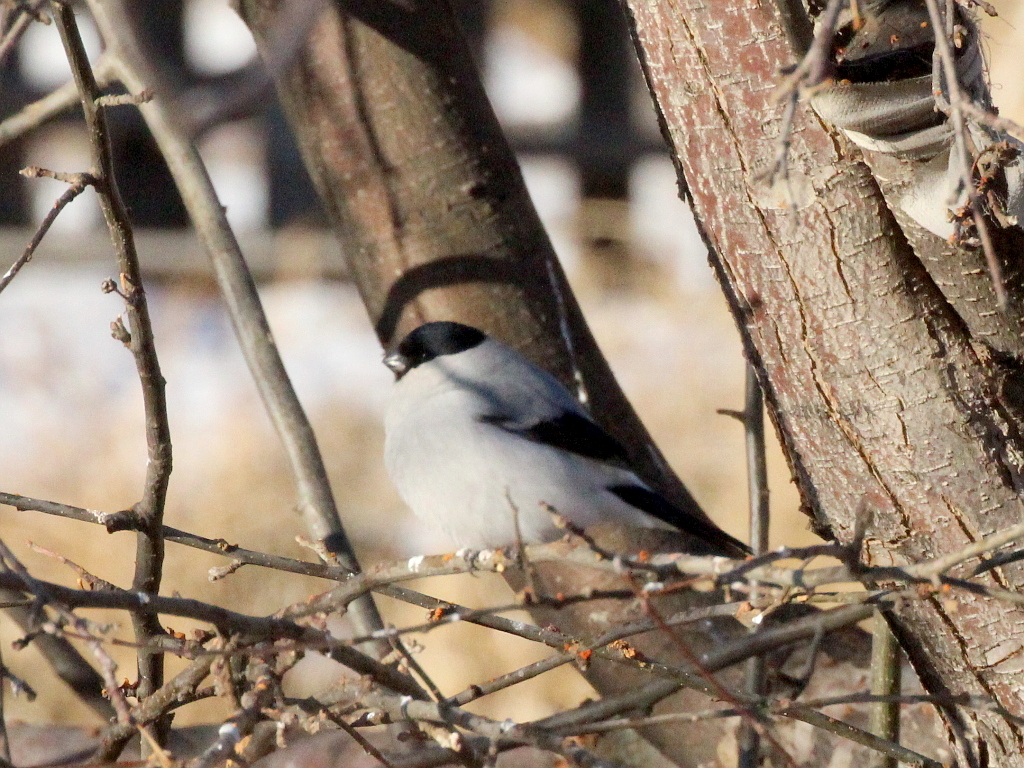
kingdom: Animalia
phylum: Chordata
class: Aves
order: Passeriformes
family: Fringillidae
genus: Pyrrhula
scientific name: Pyrrhula pyrrhula
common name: Eurasian bullfinch
